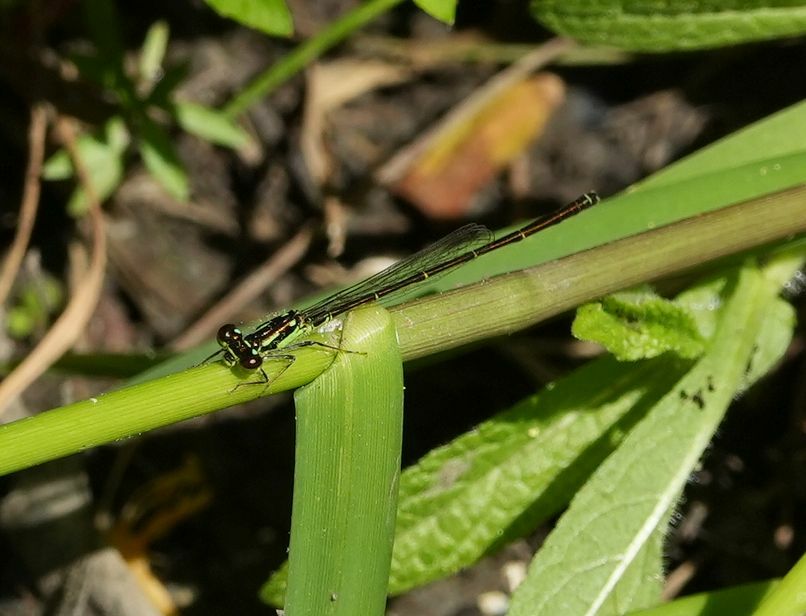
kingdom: Animalia
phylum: Arthropoda
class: Insecta
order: Odonata
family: Coenagrionidae
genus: Ischnura
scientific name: Ischnura posita
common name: Fragile forktail
